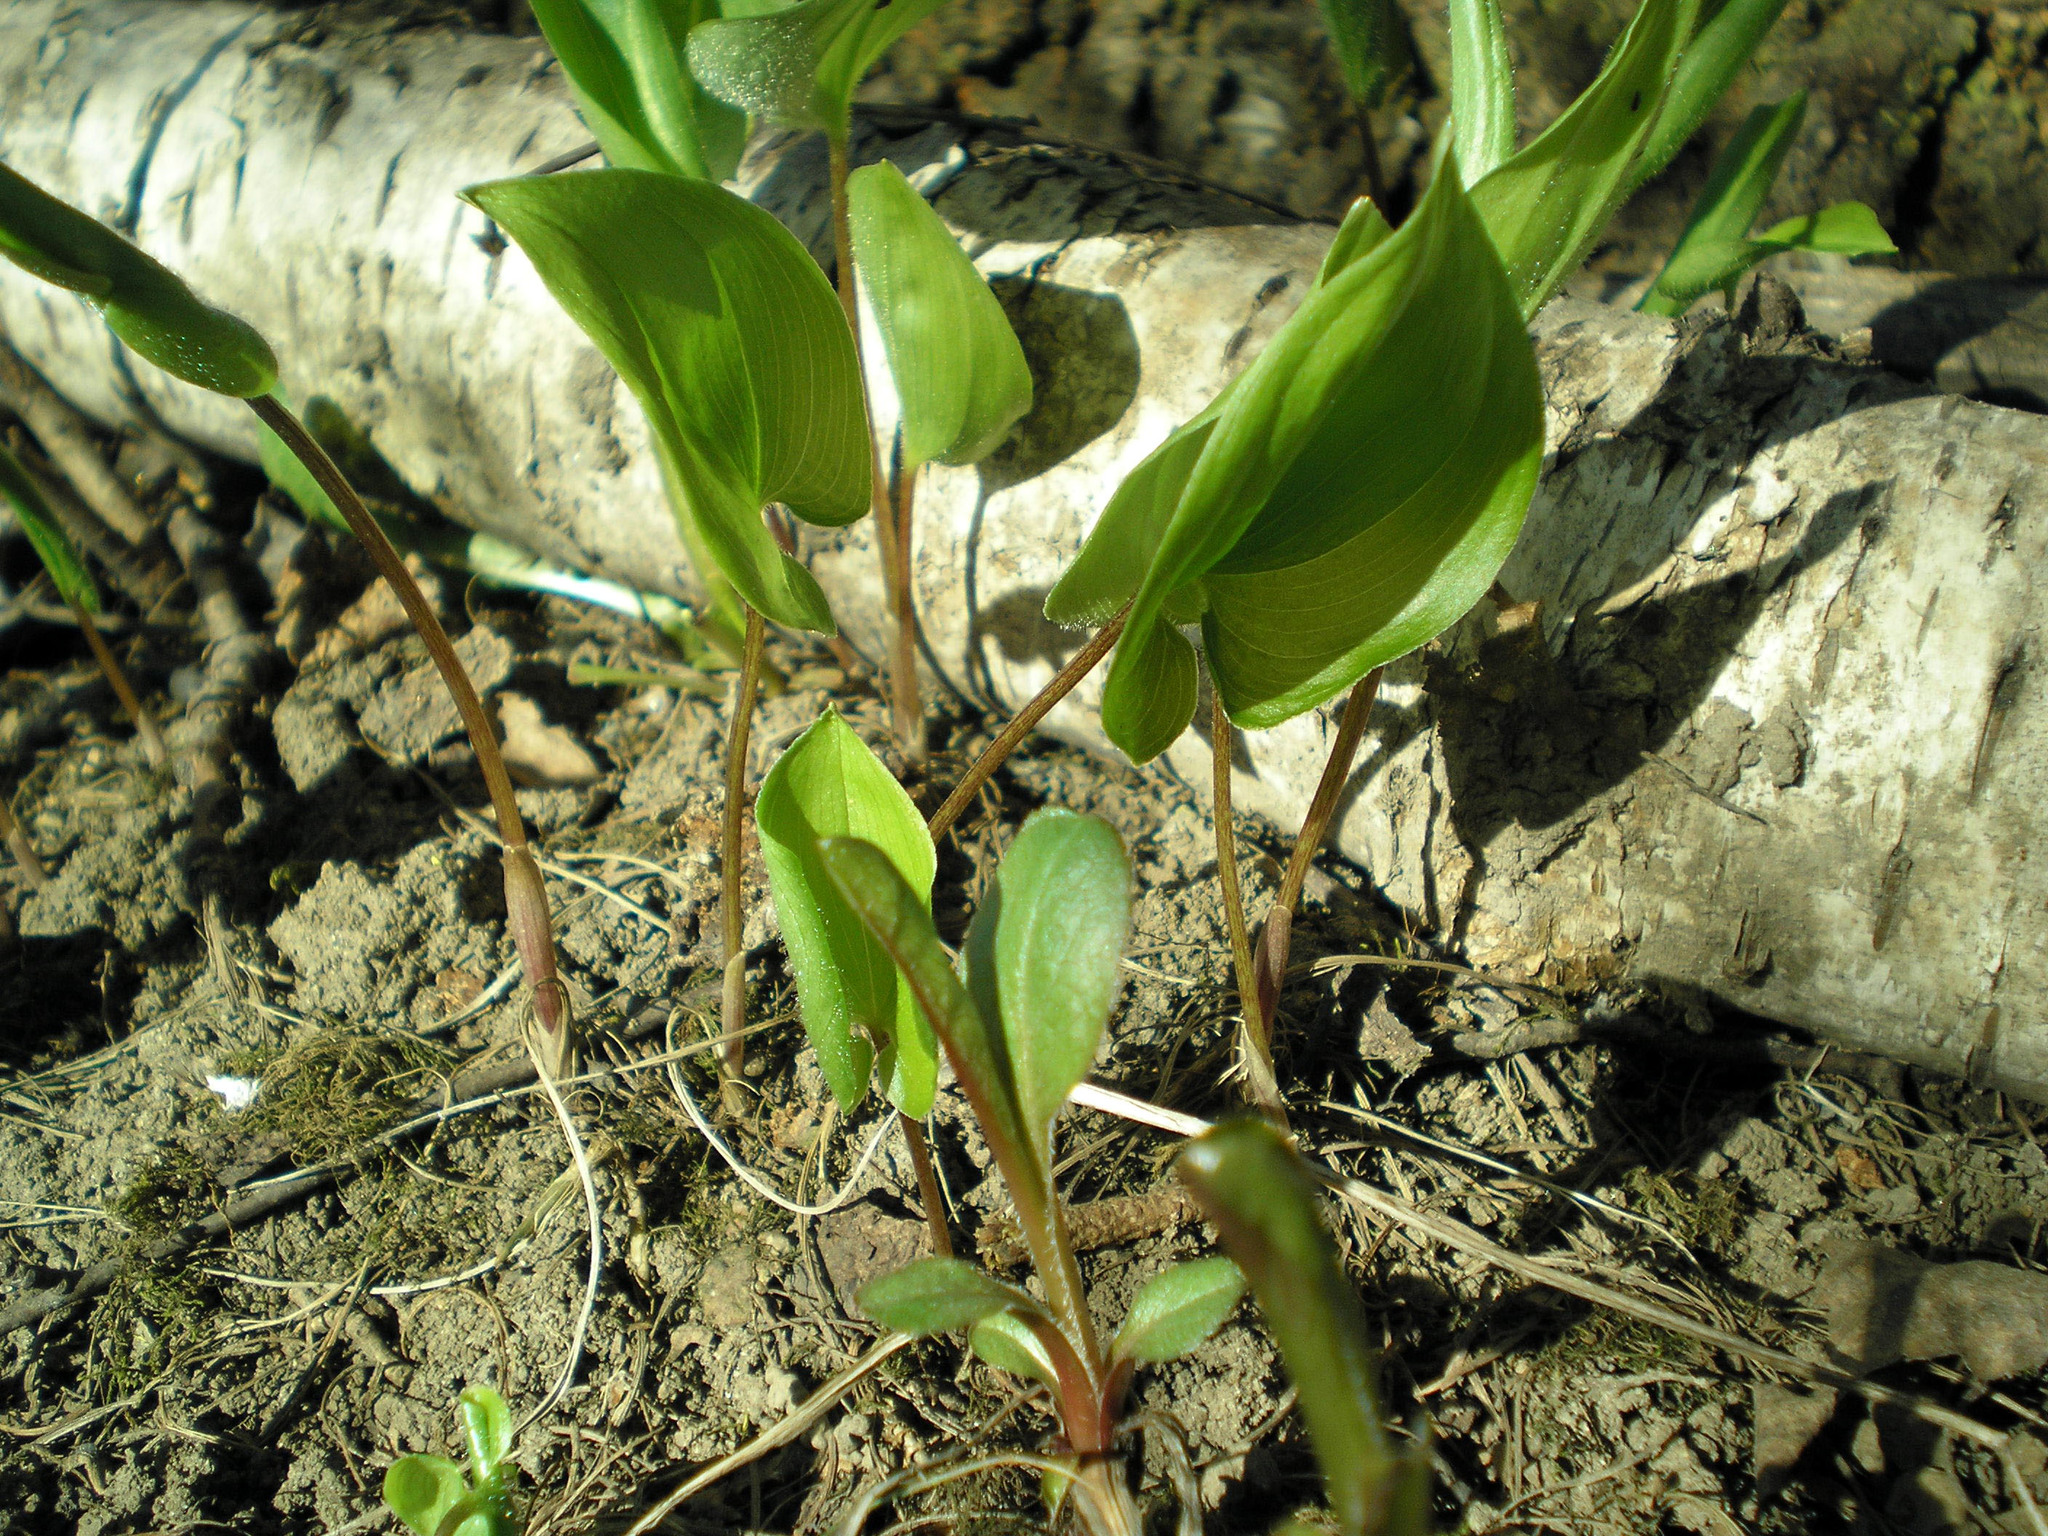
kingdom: Plantae
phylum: Tracheophyta
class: Liliopsida
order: Asparagales
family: Asparagaceae
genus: Maianthemum
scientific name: Maianthemum bifolium
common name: May lily
